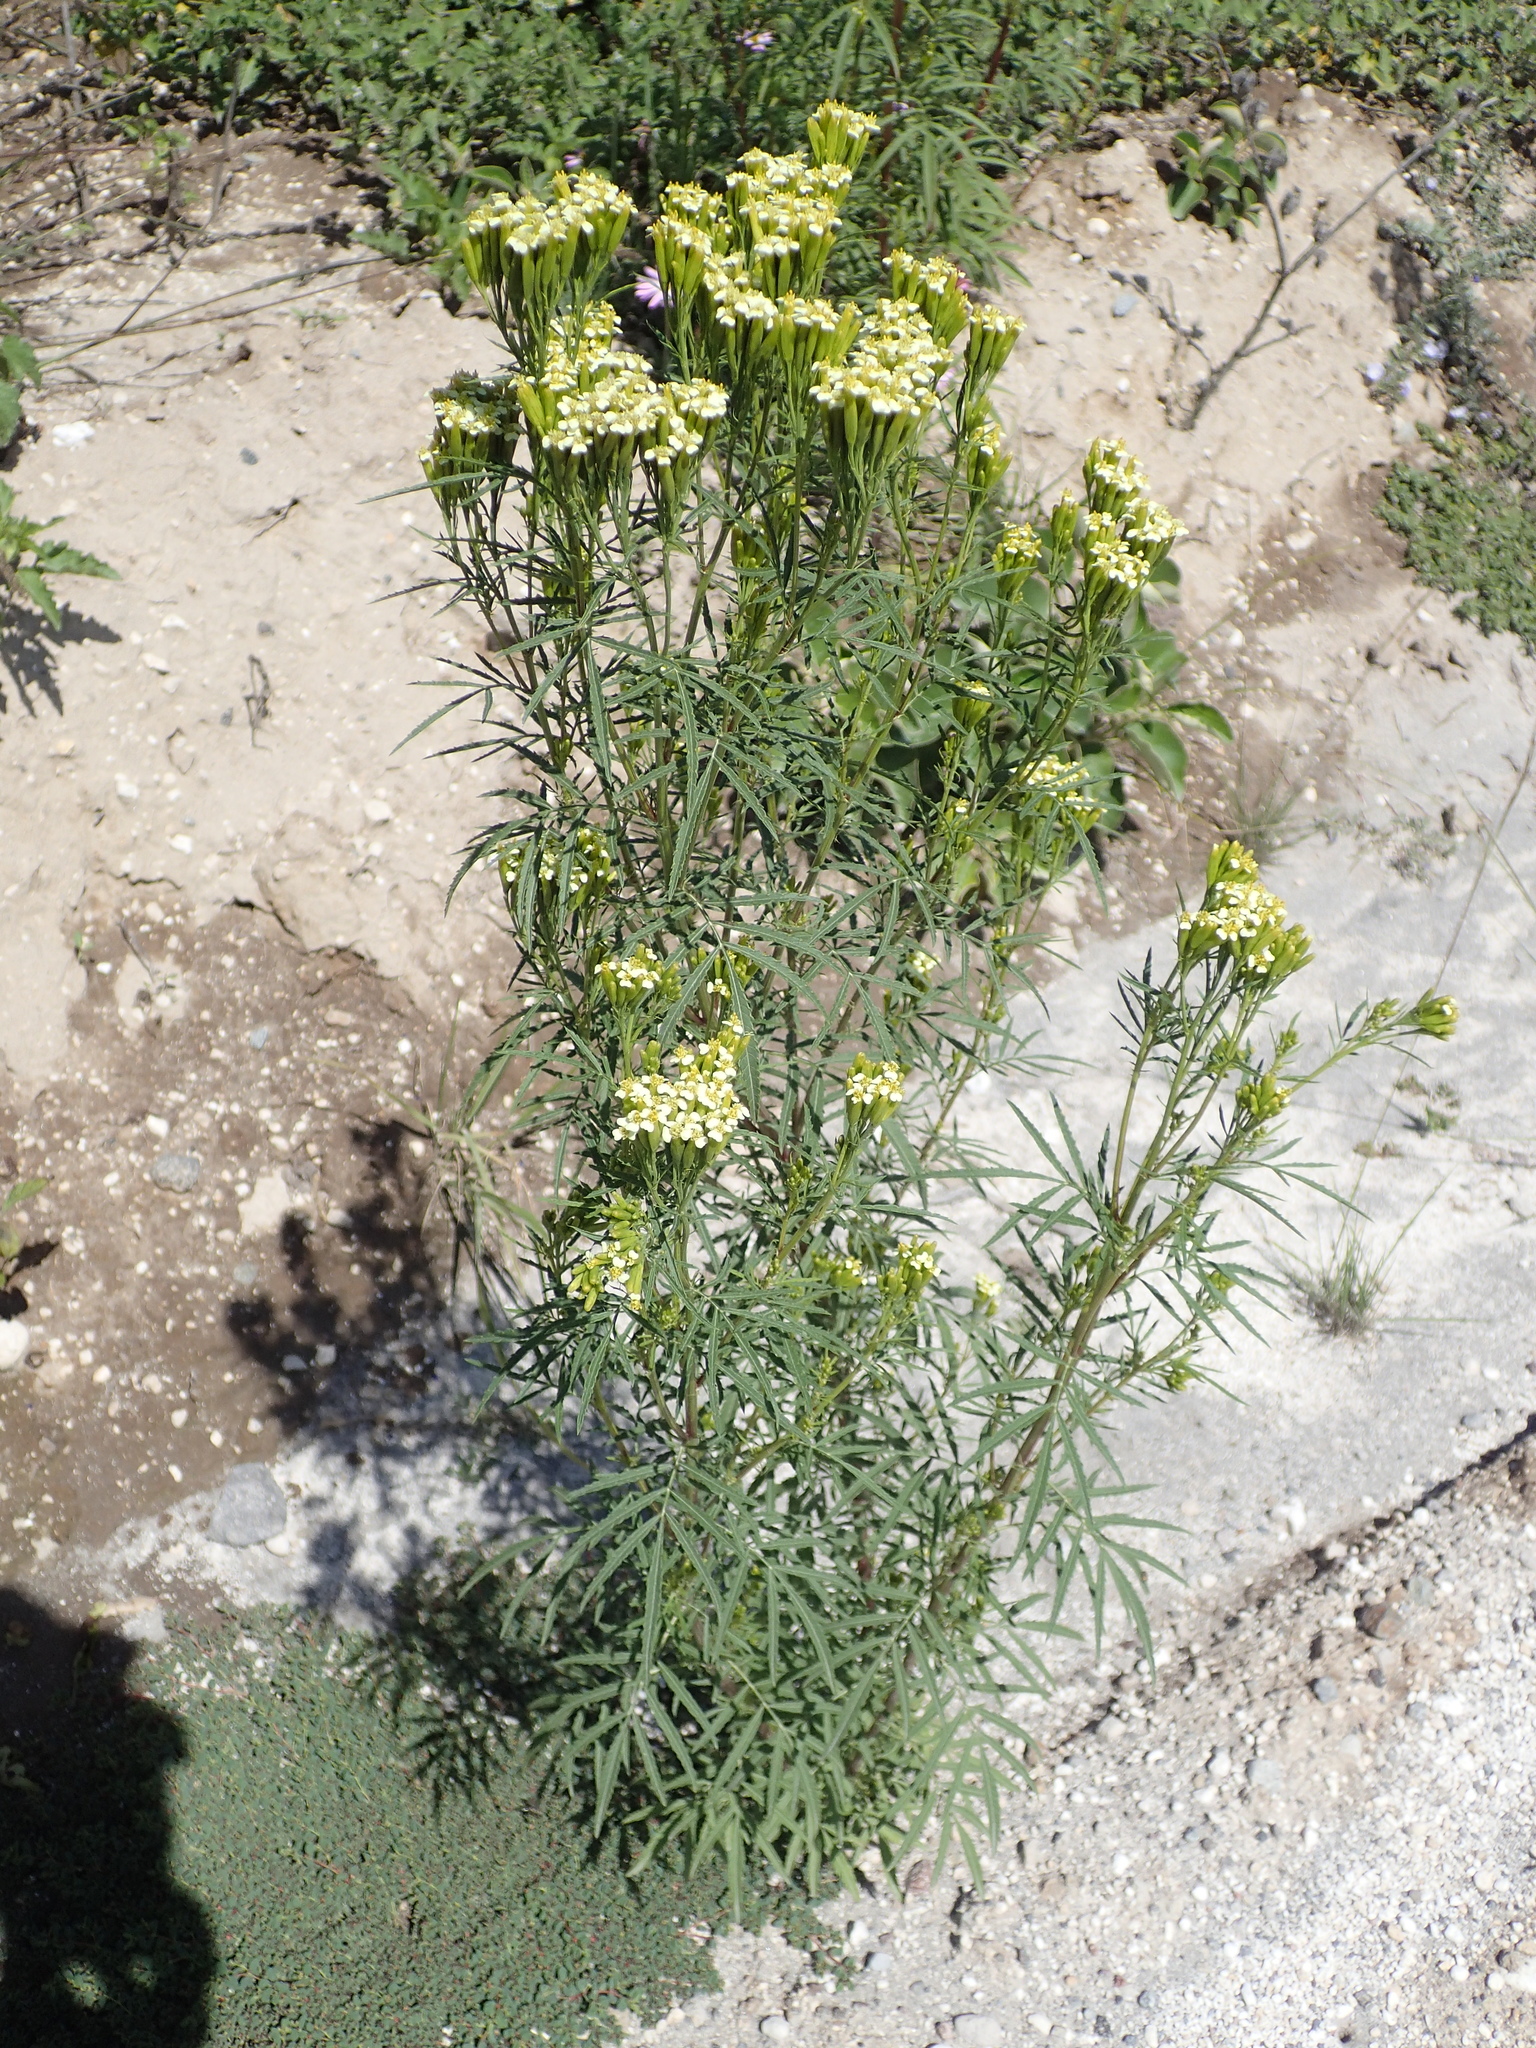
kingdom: Plantae
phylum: Tracheophyta
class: Magnoliopsida
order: Asterales
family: Asteraceae
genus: Tagetes
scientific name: Tagetes minuta
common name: Muster john henry
